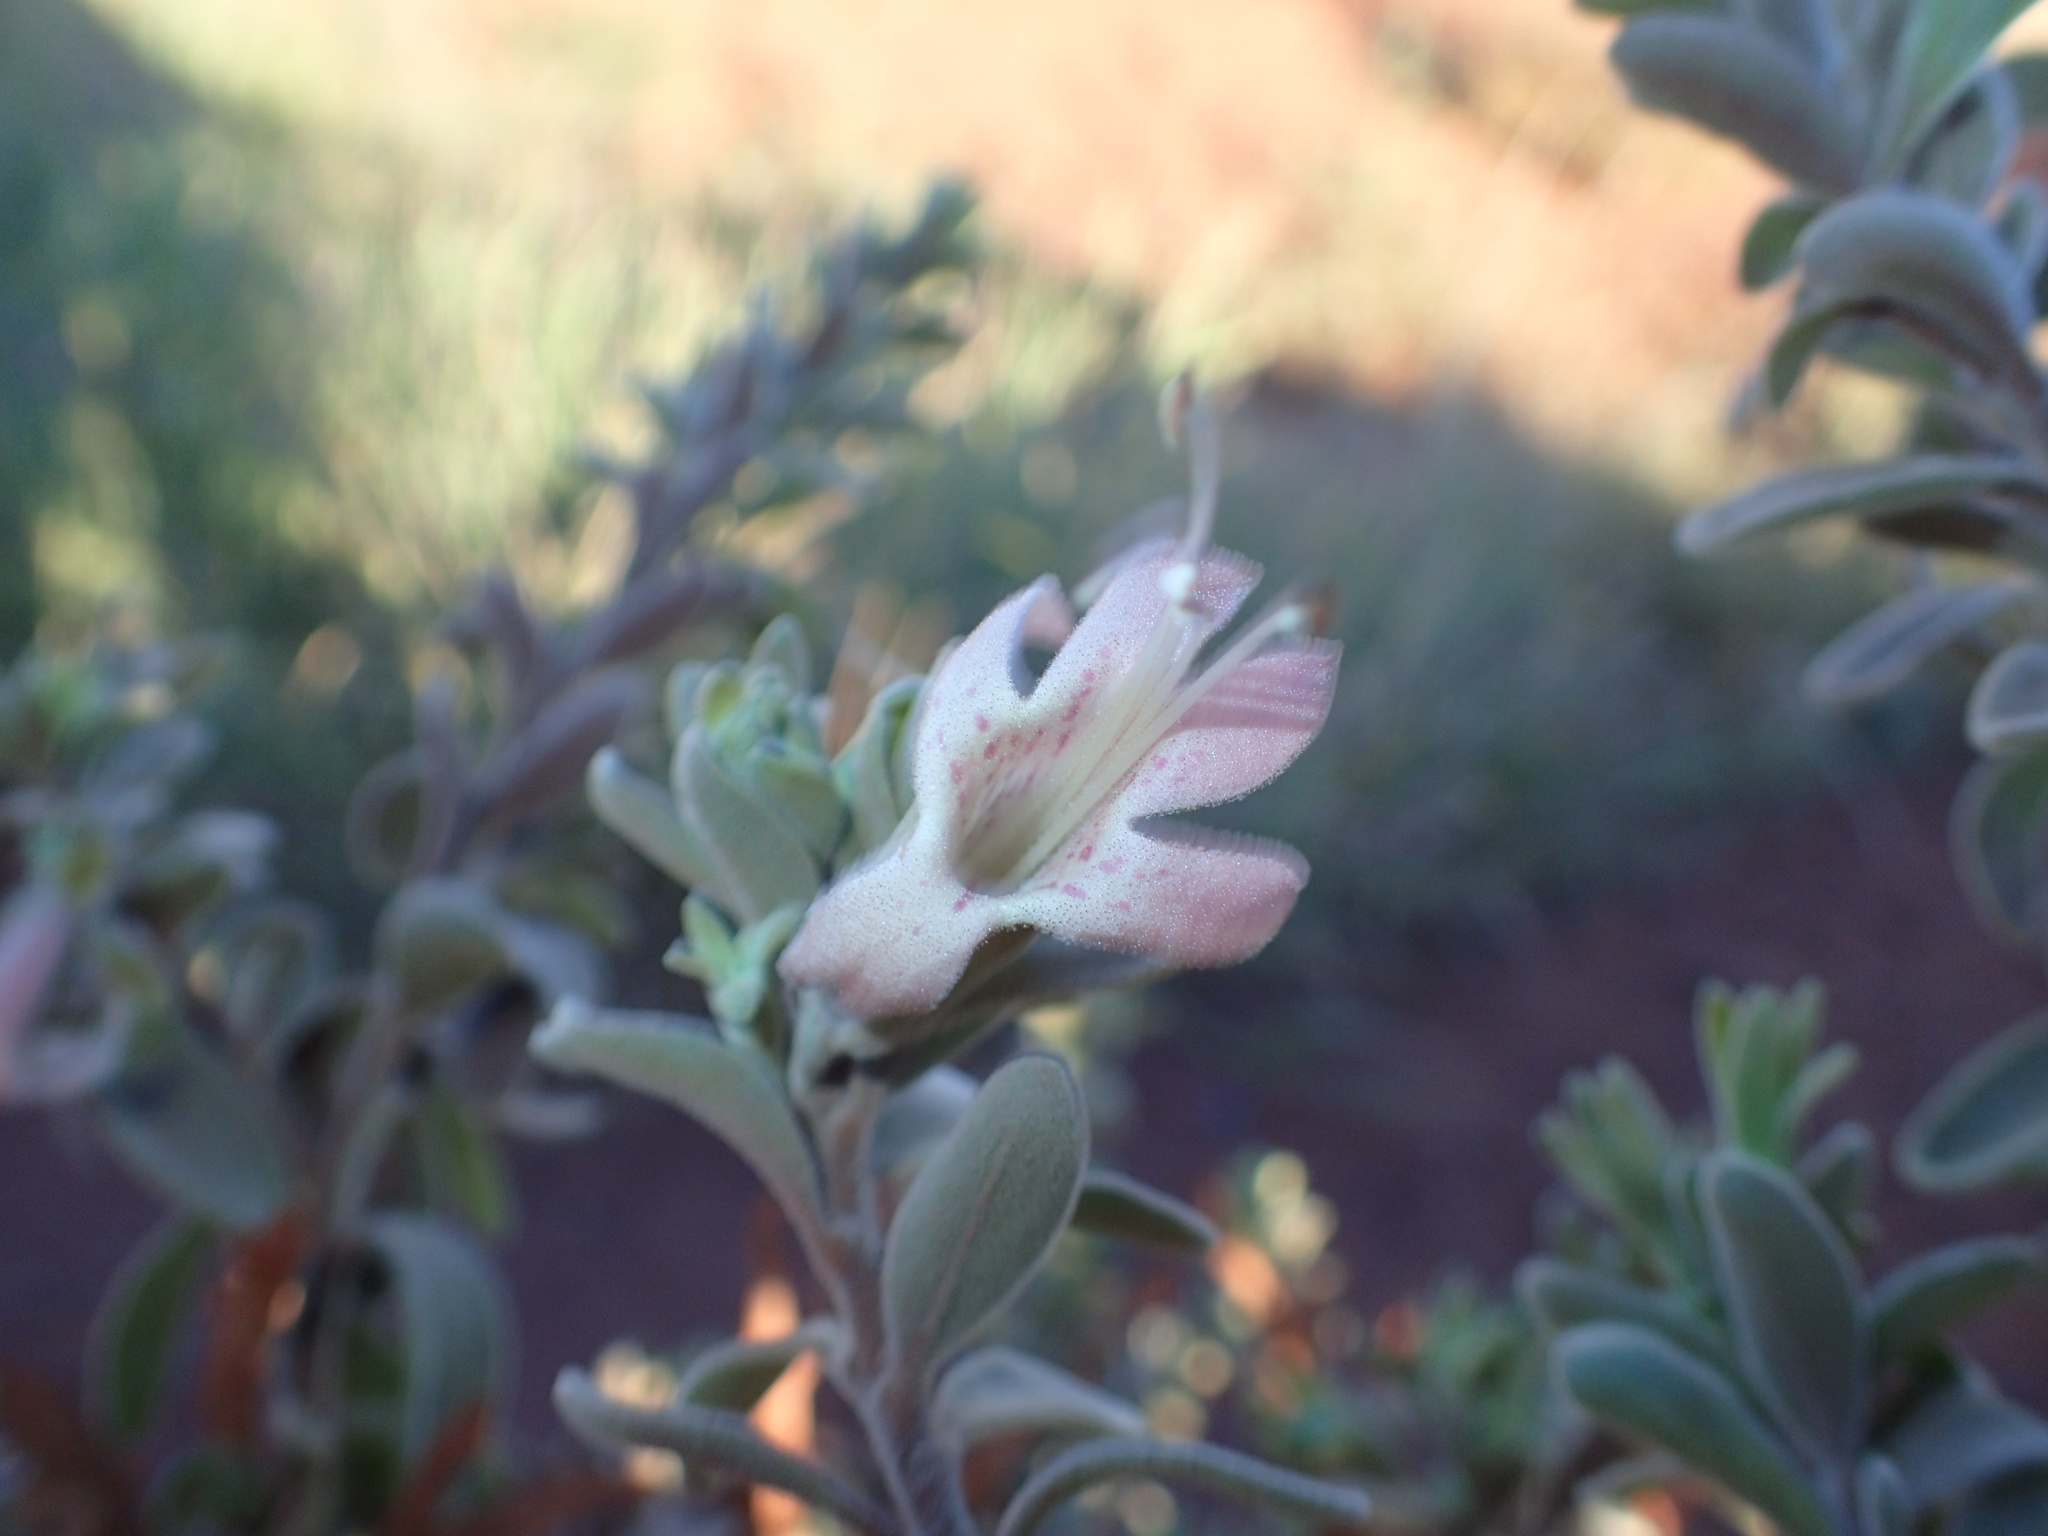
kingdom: Plantae
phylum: Tracheophyta
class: Magnoliopsida
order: Lamiales
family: Scrophulariaceae
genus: Eremophila
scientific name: Eremophila forrestii
